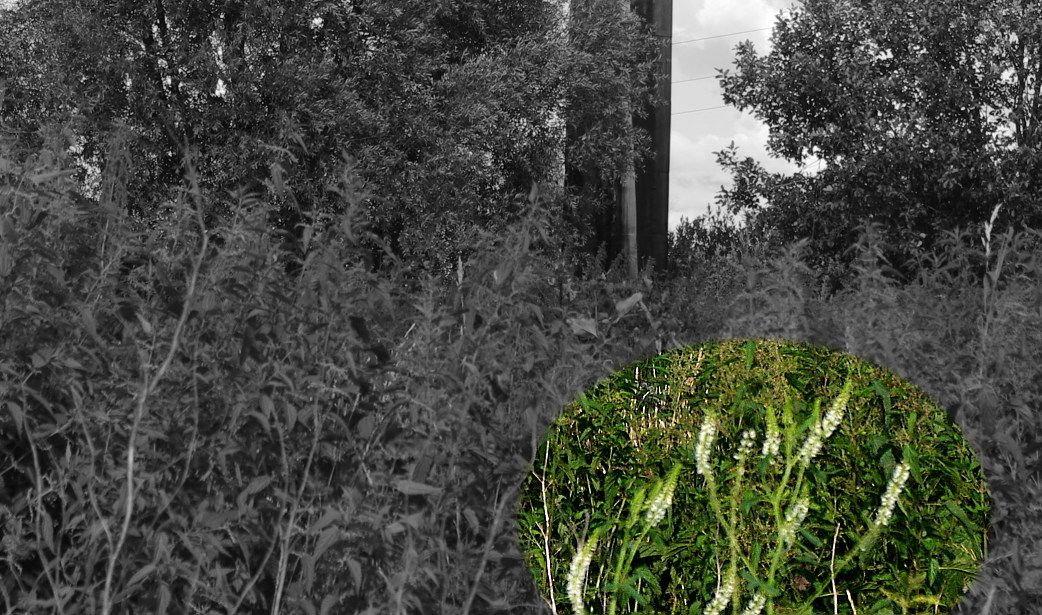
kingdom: Plantae
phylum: Tracheophyta
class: Magnoliopsida
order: Fabales
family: Fabaceae
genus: Melilotus
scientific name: Melilotus albus
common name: White melilot
